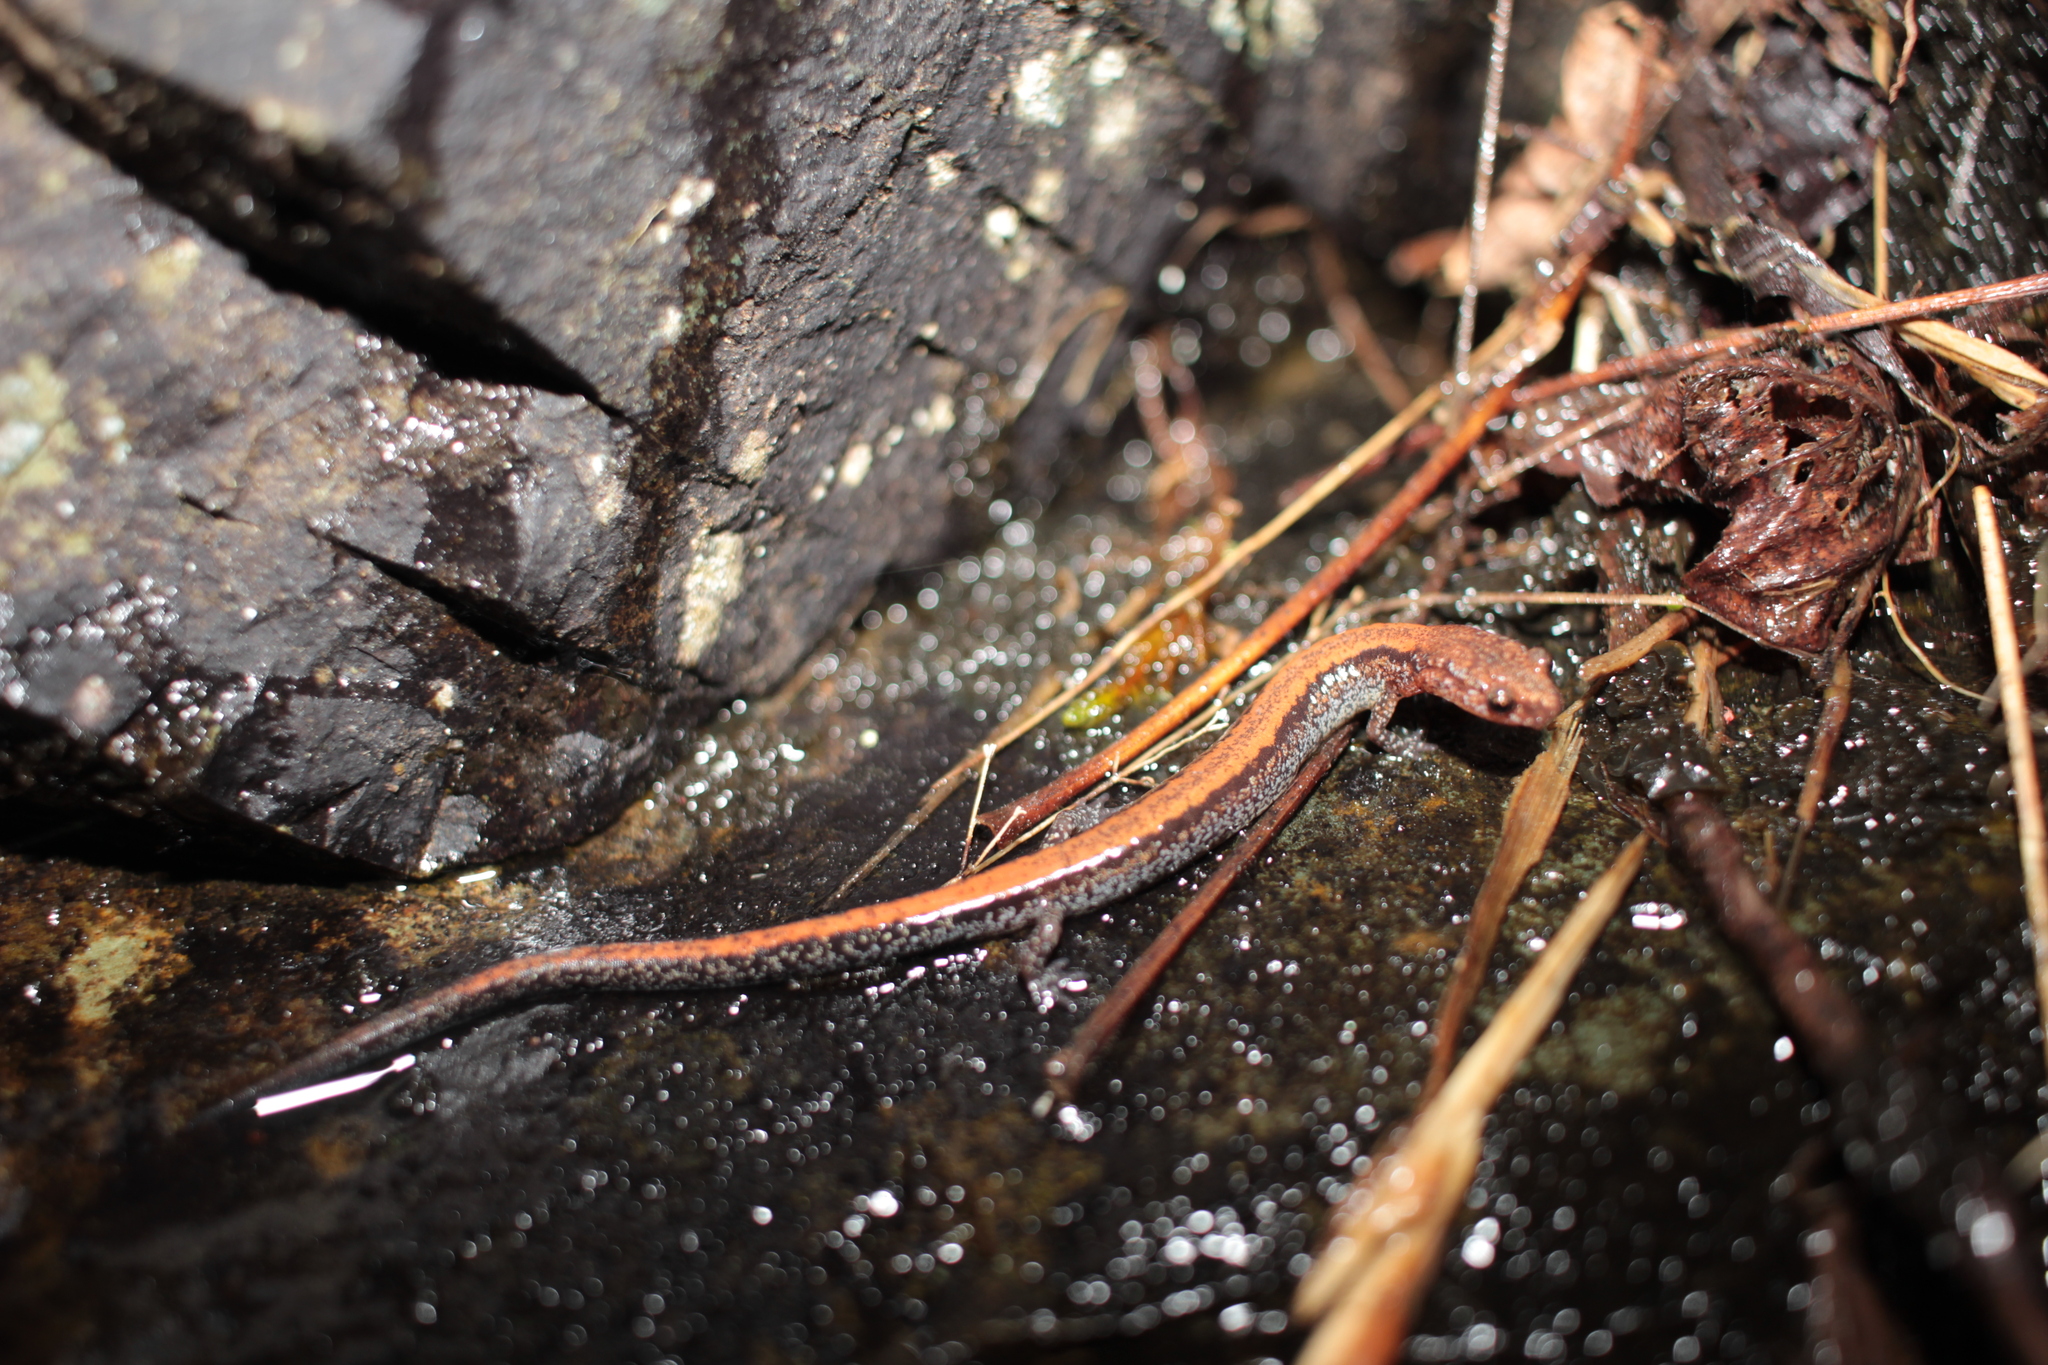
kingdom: Animalia
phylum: Chordata
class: Amphibia
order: Caudata
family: Plethodontidae
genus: Plethodon
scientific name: Plethodon cinereus
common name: Redback salamander
